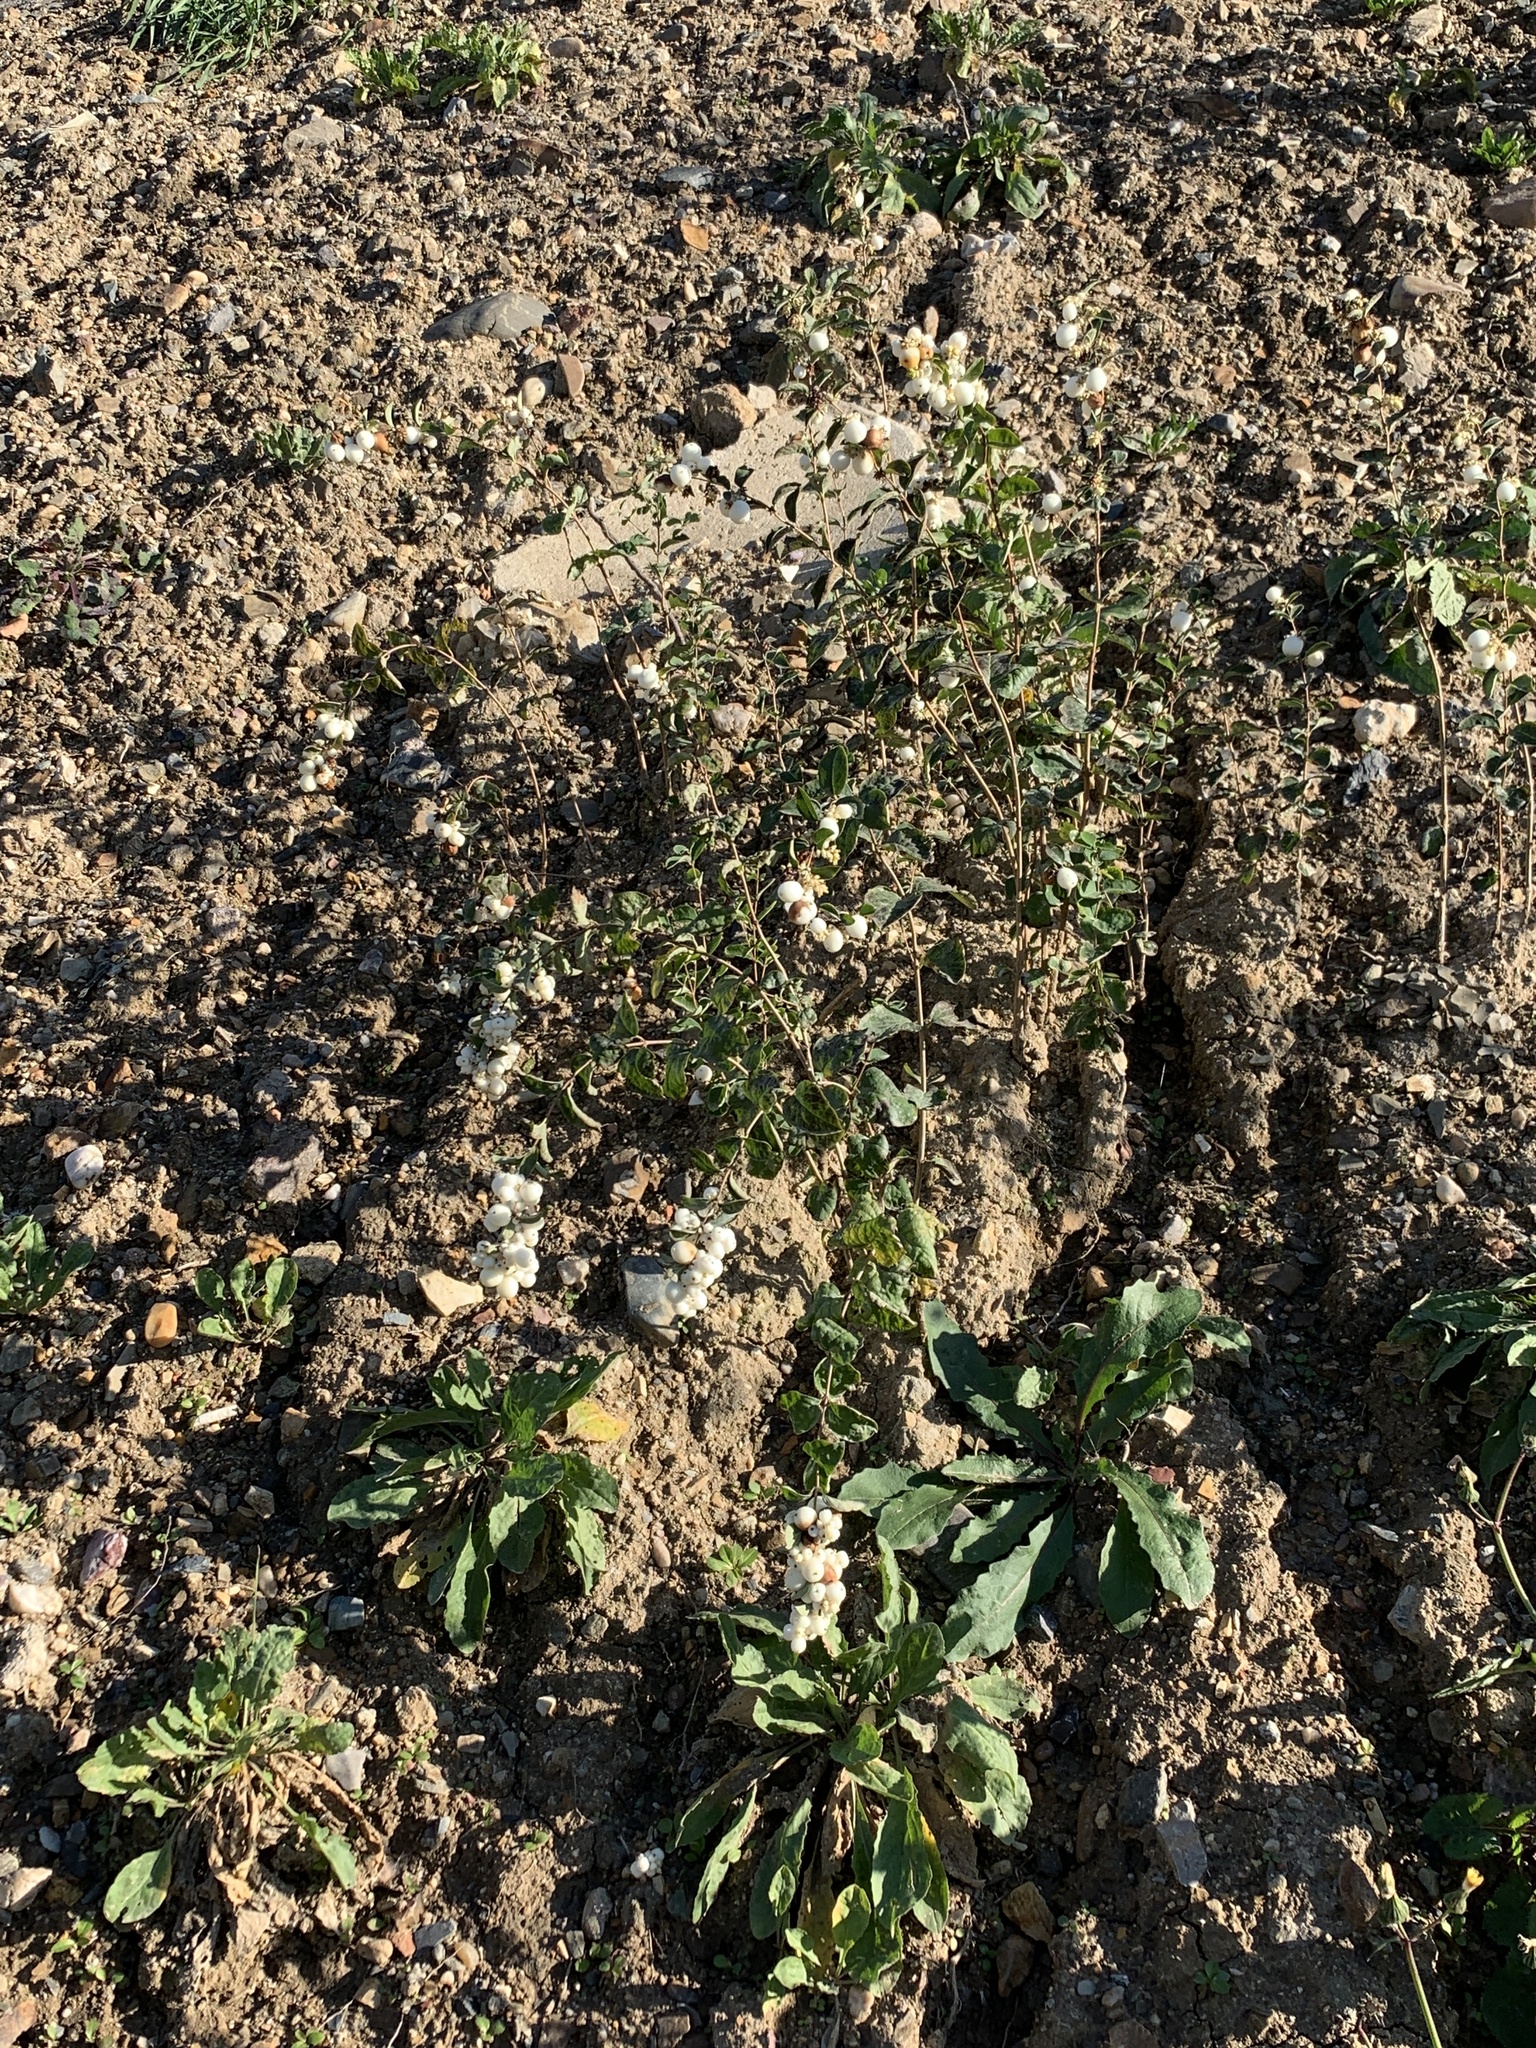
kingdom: Plantae
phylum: Tracheophyta
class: Magnoliopsida
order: Dipsacales
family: Caprifoliaceae
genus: Symphoricarpos
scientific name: Symphoricarpos albus
